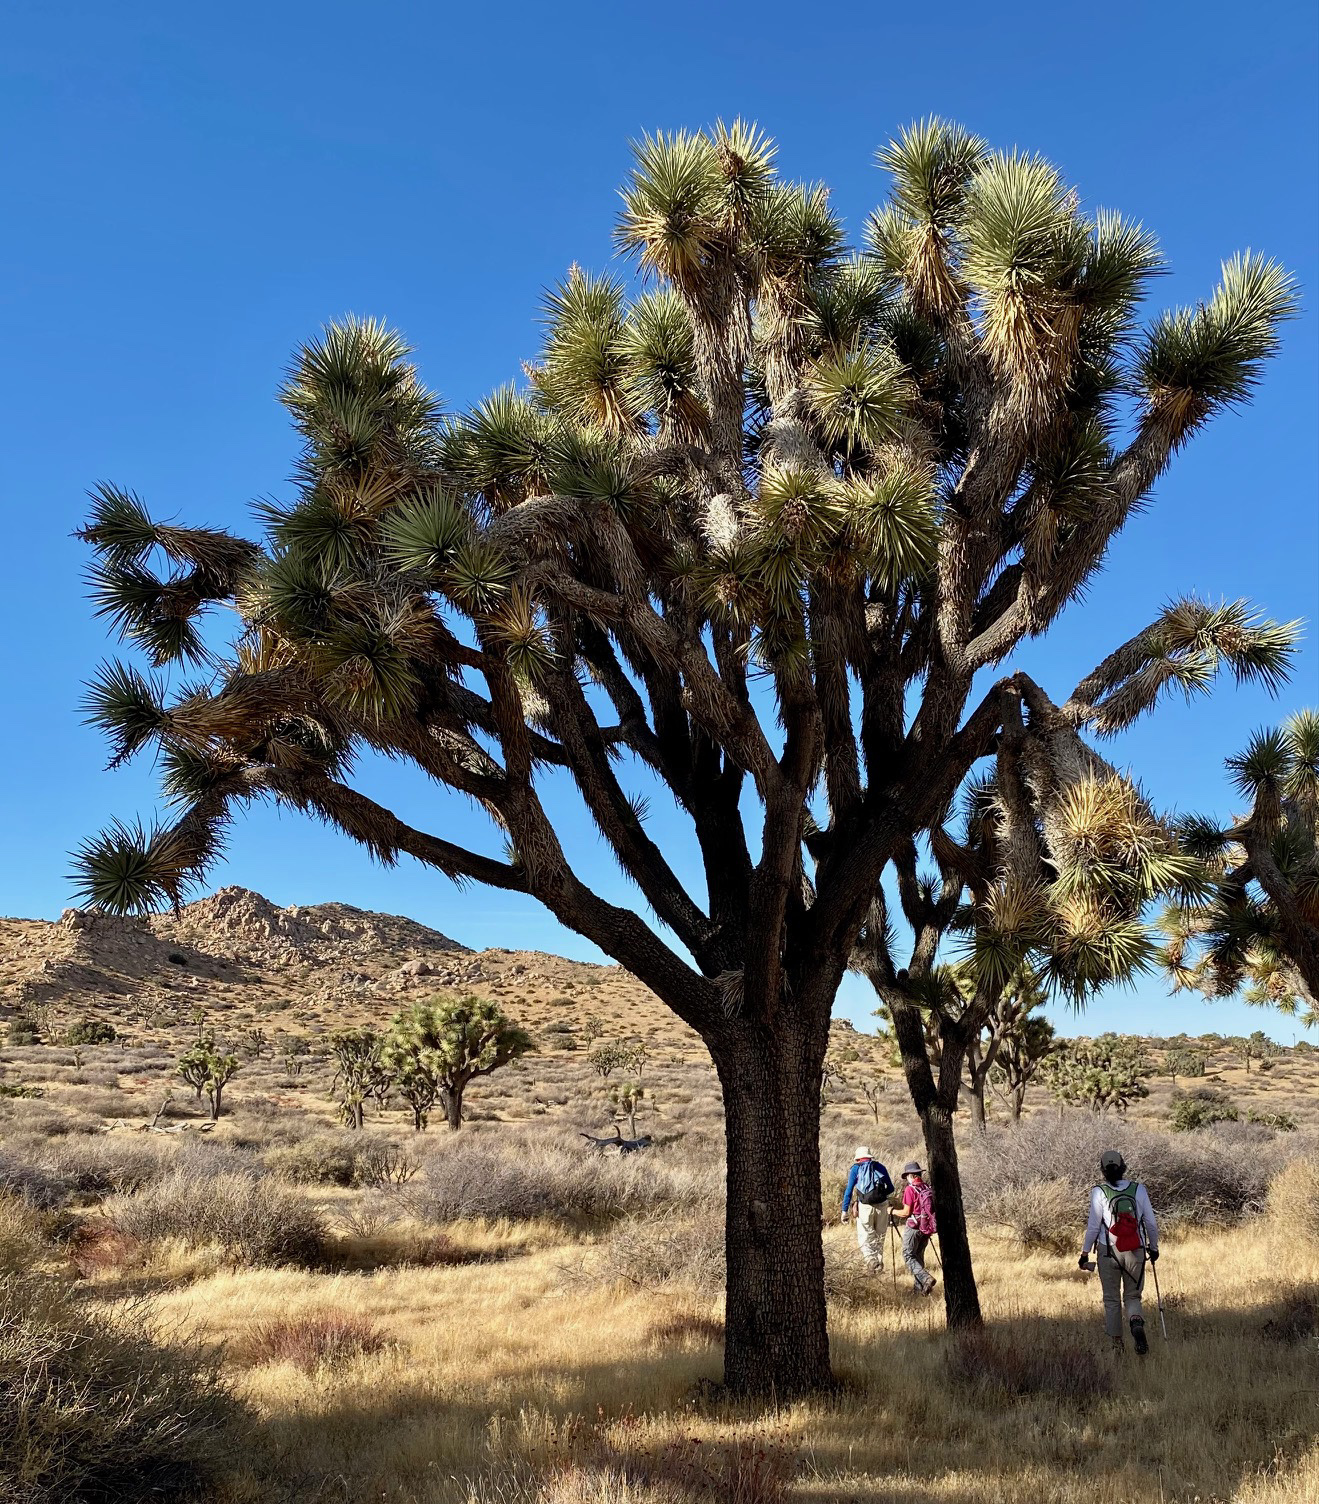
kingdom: Plantae
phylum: Tracheophyta
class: Liliopsida
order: Asparagales
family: Asparagaceae
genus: Yucca
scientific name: Yucca brevifolia
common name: Joshua tree
